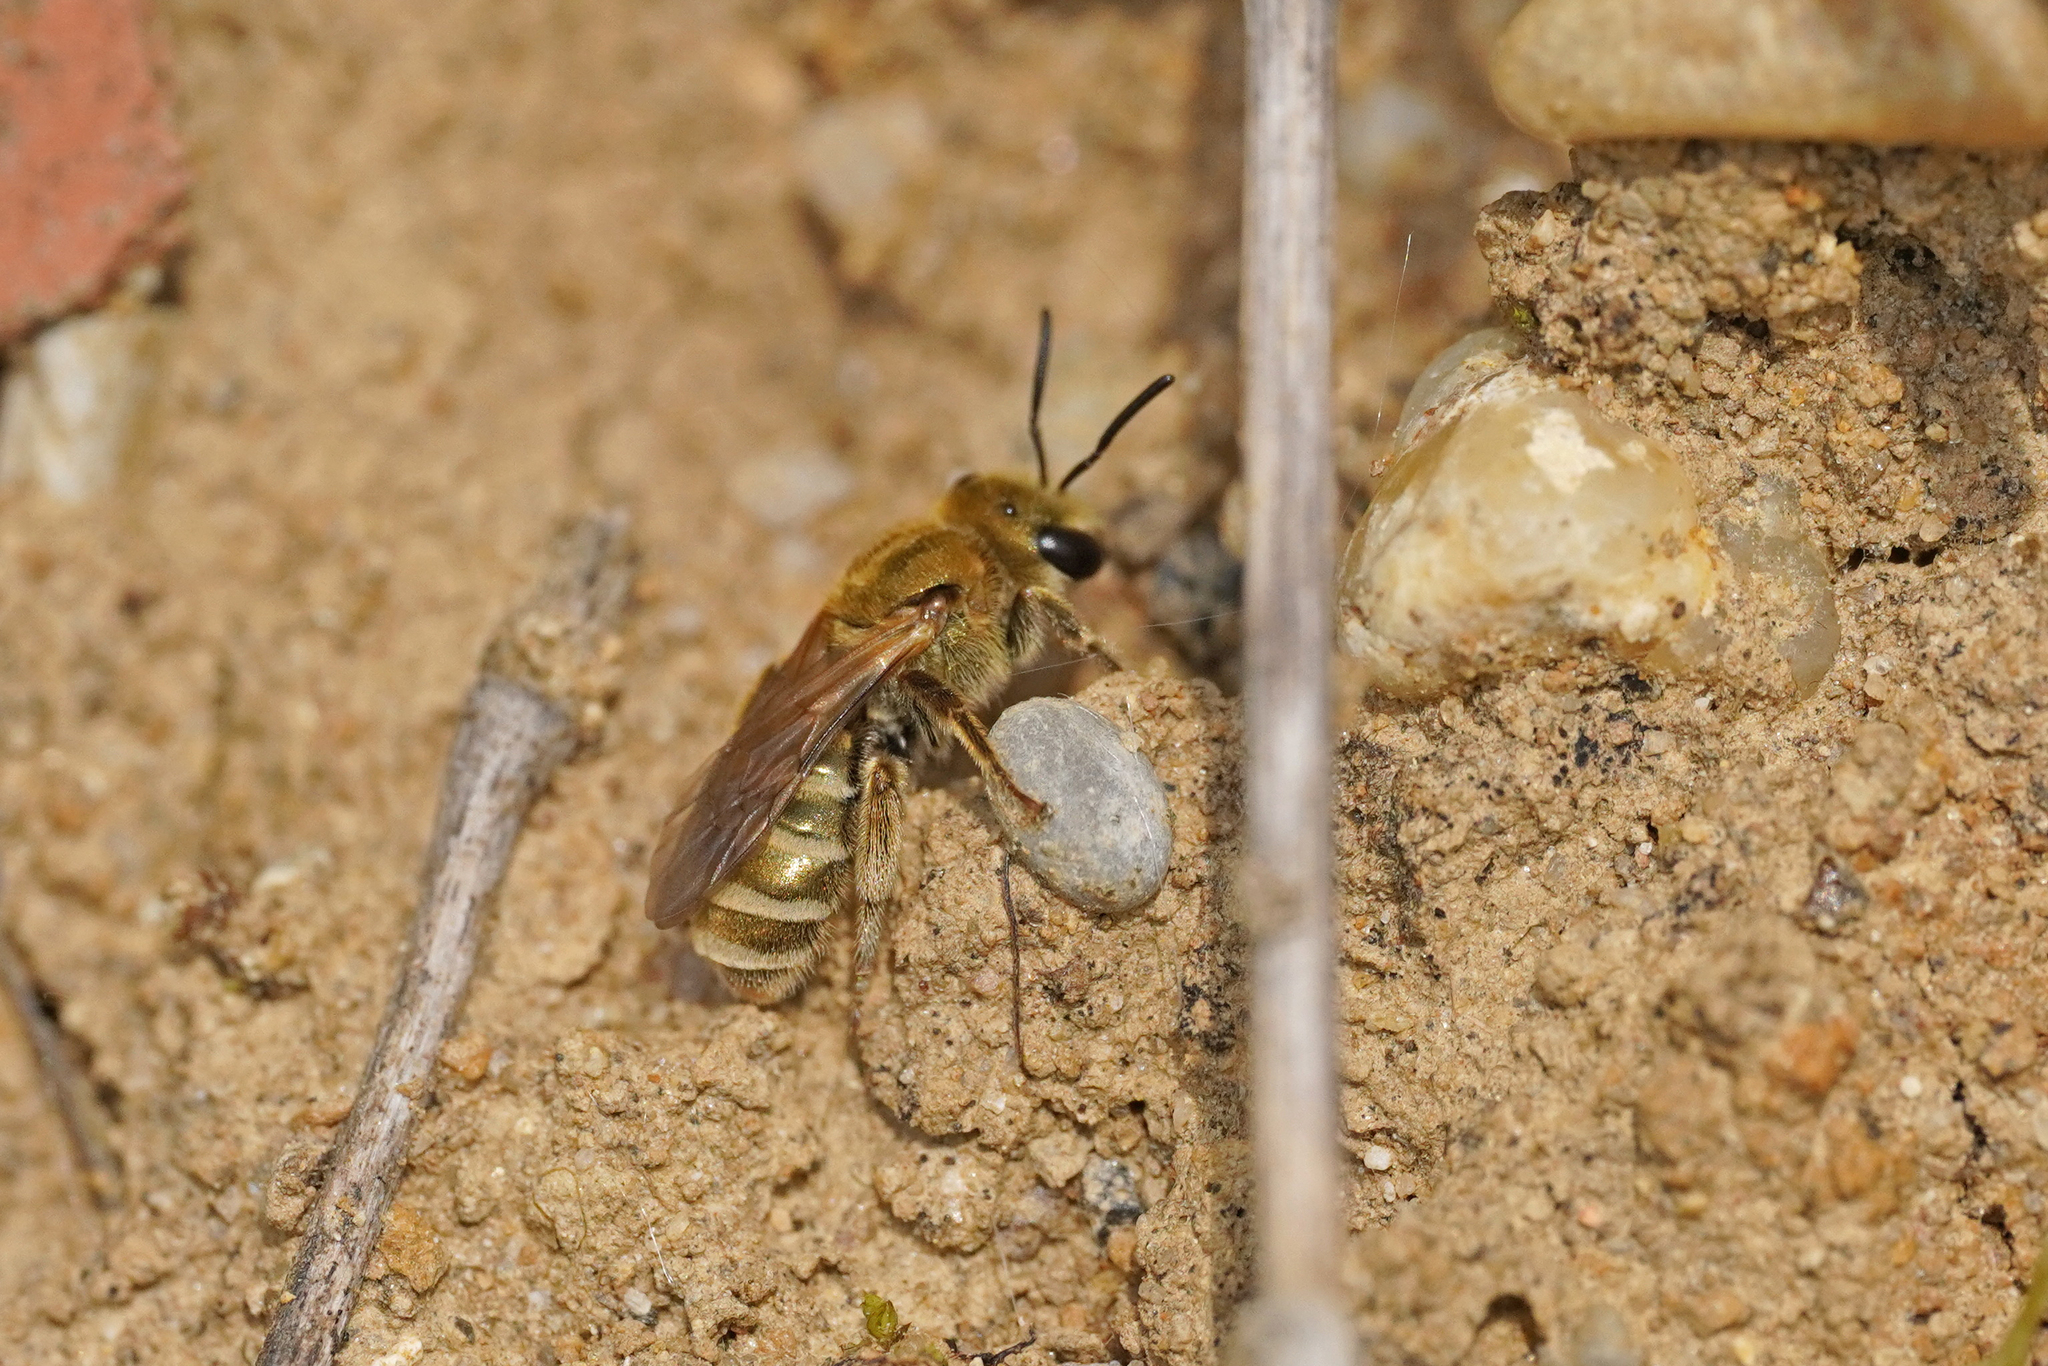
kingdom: Animalia
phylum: Arthropoda
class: Insecta
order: Hymenoptera
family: Halictidae
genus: Halictus
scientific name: Halictus subauratus
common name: Golden furrow bee
